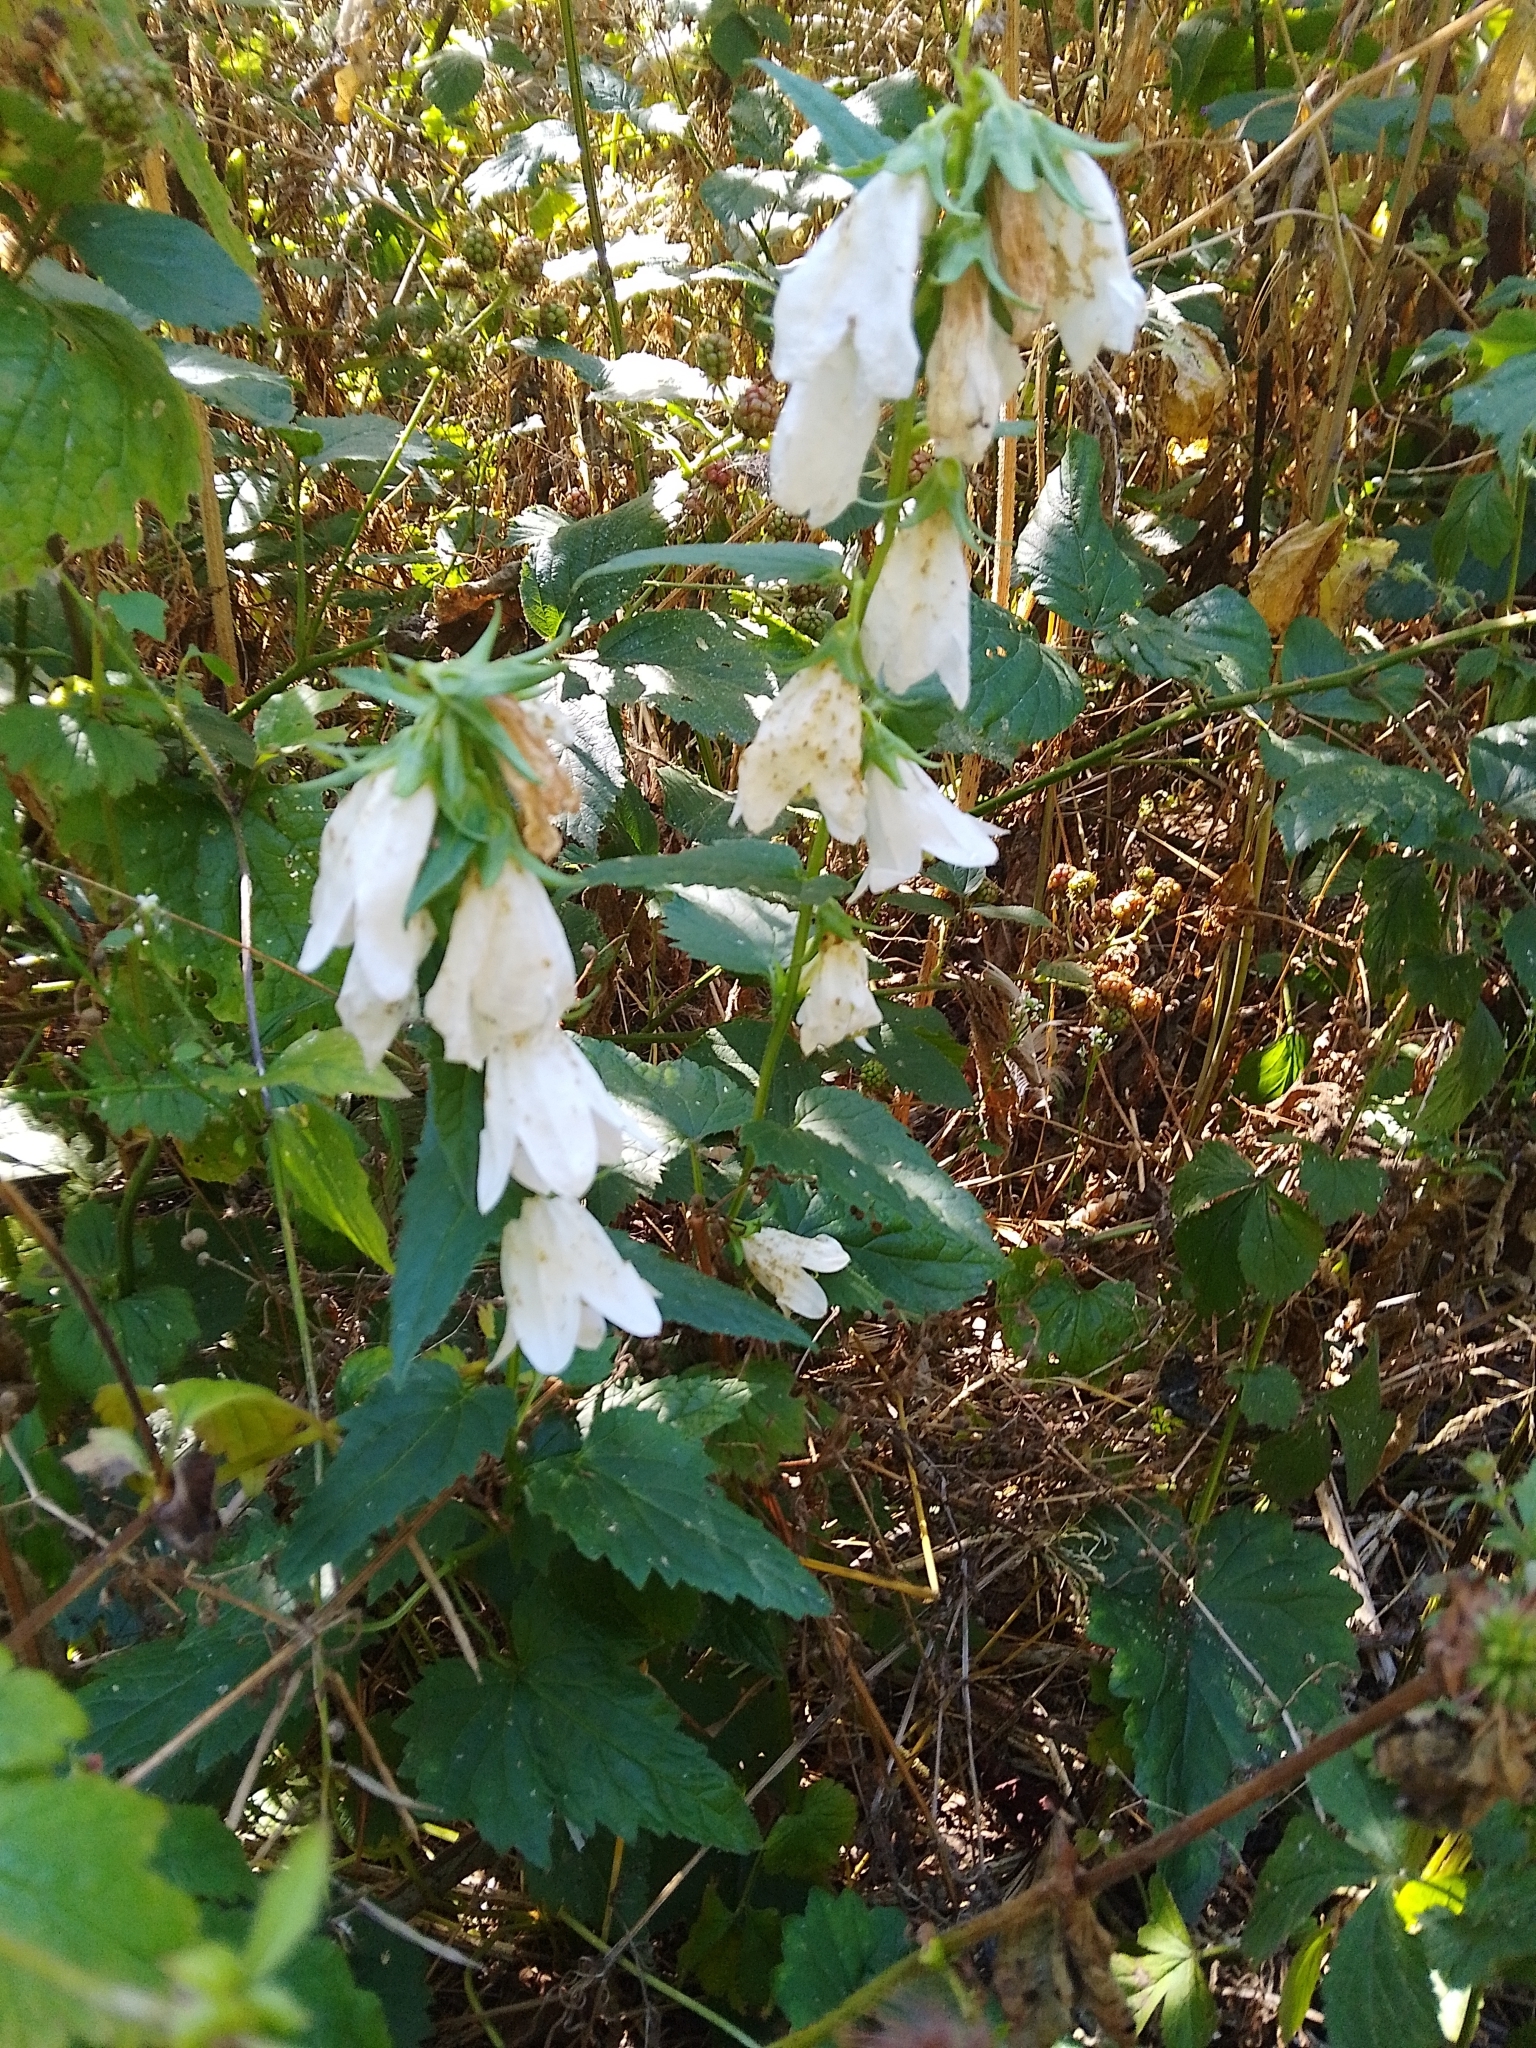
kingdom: Plantae
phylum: Tracheophyta
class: Magnoliopsida
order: Asterales
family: Campanulaceae
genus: Campanula
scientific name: Campanula trachelium
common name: Nettle-leaved bellflower
